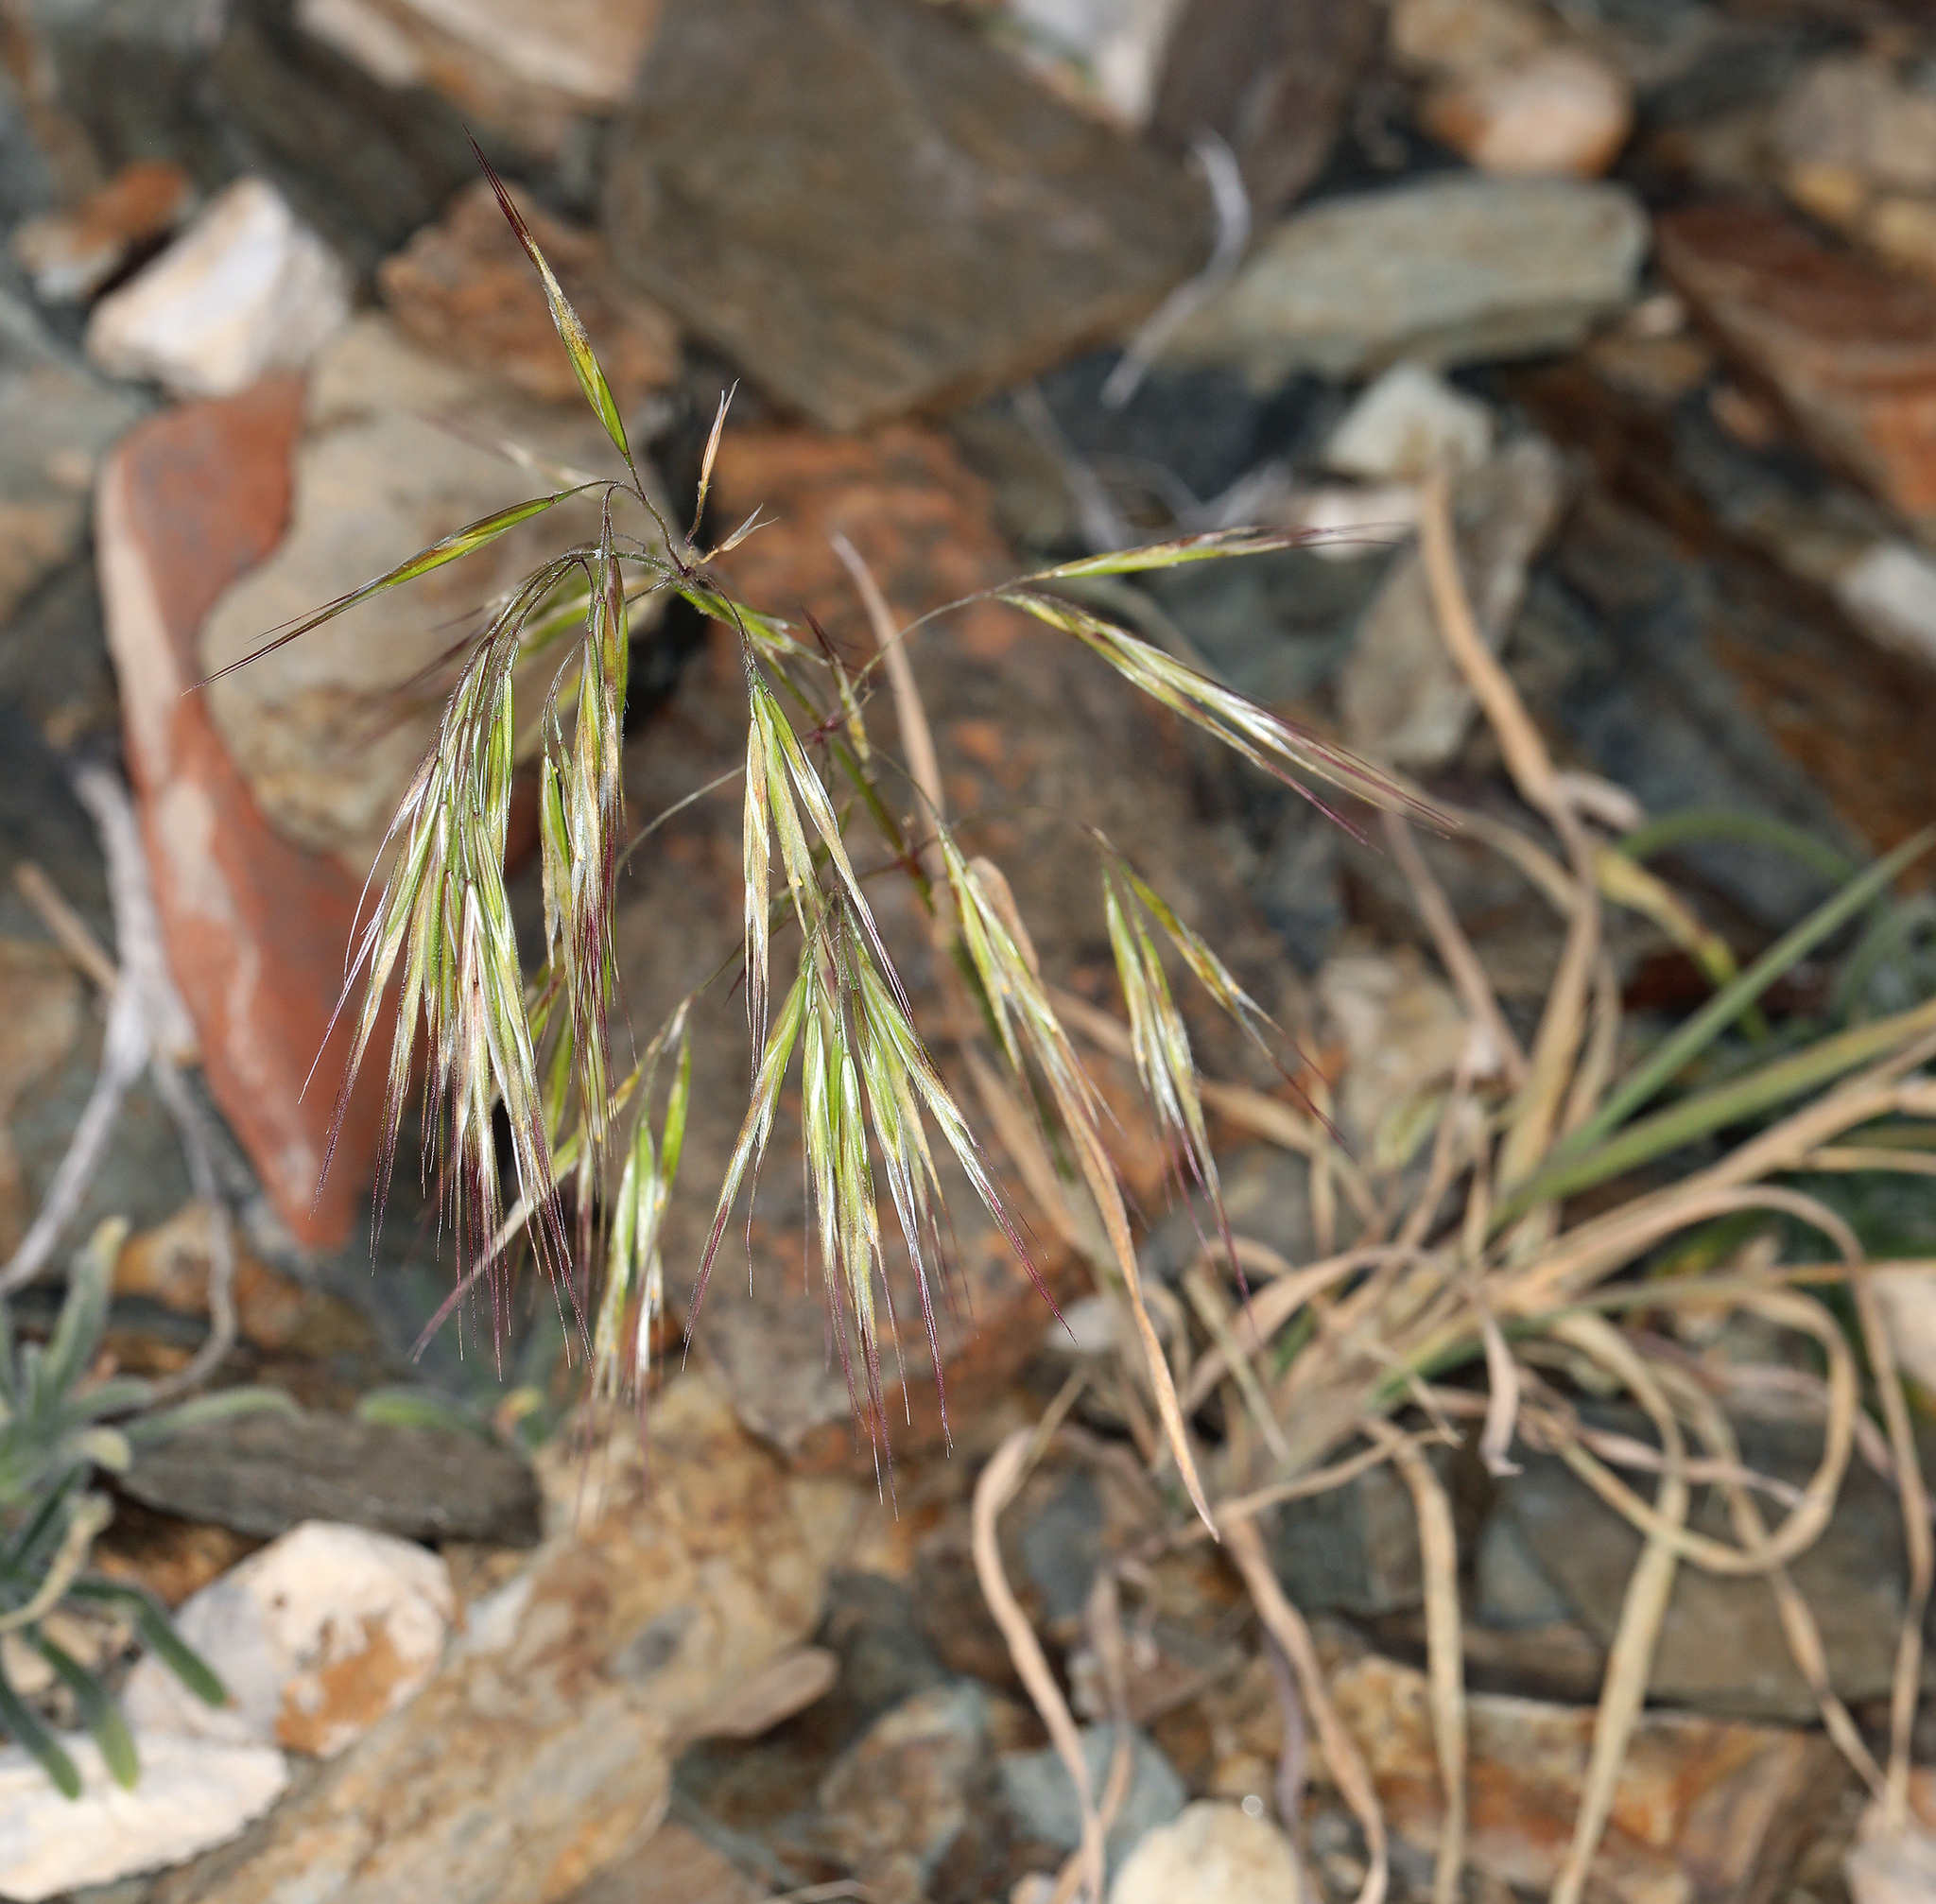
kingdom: Plantae
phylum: Tracheophyta
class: Liliopsida
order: Poales
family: Poaceae
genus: Bromus
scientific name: Bromus tectorum
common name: Cheatgrass
